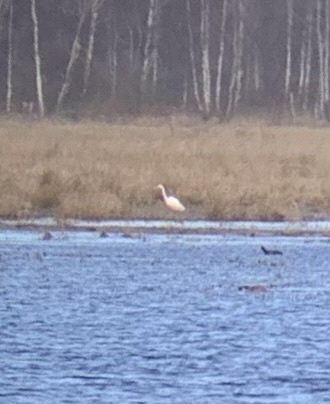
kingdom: Animalia
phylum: Chordata
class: Aves
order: Pelecaniformes
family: Ardeidae
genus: Ardea
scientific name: Ardea alba
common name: Great egret
